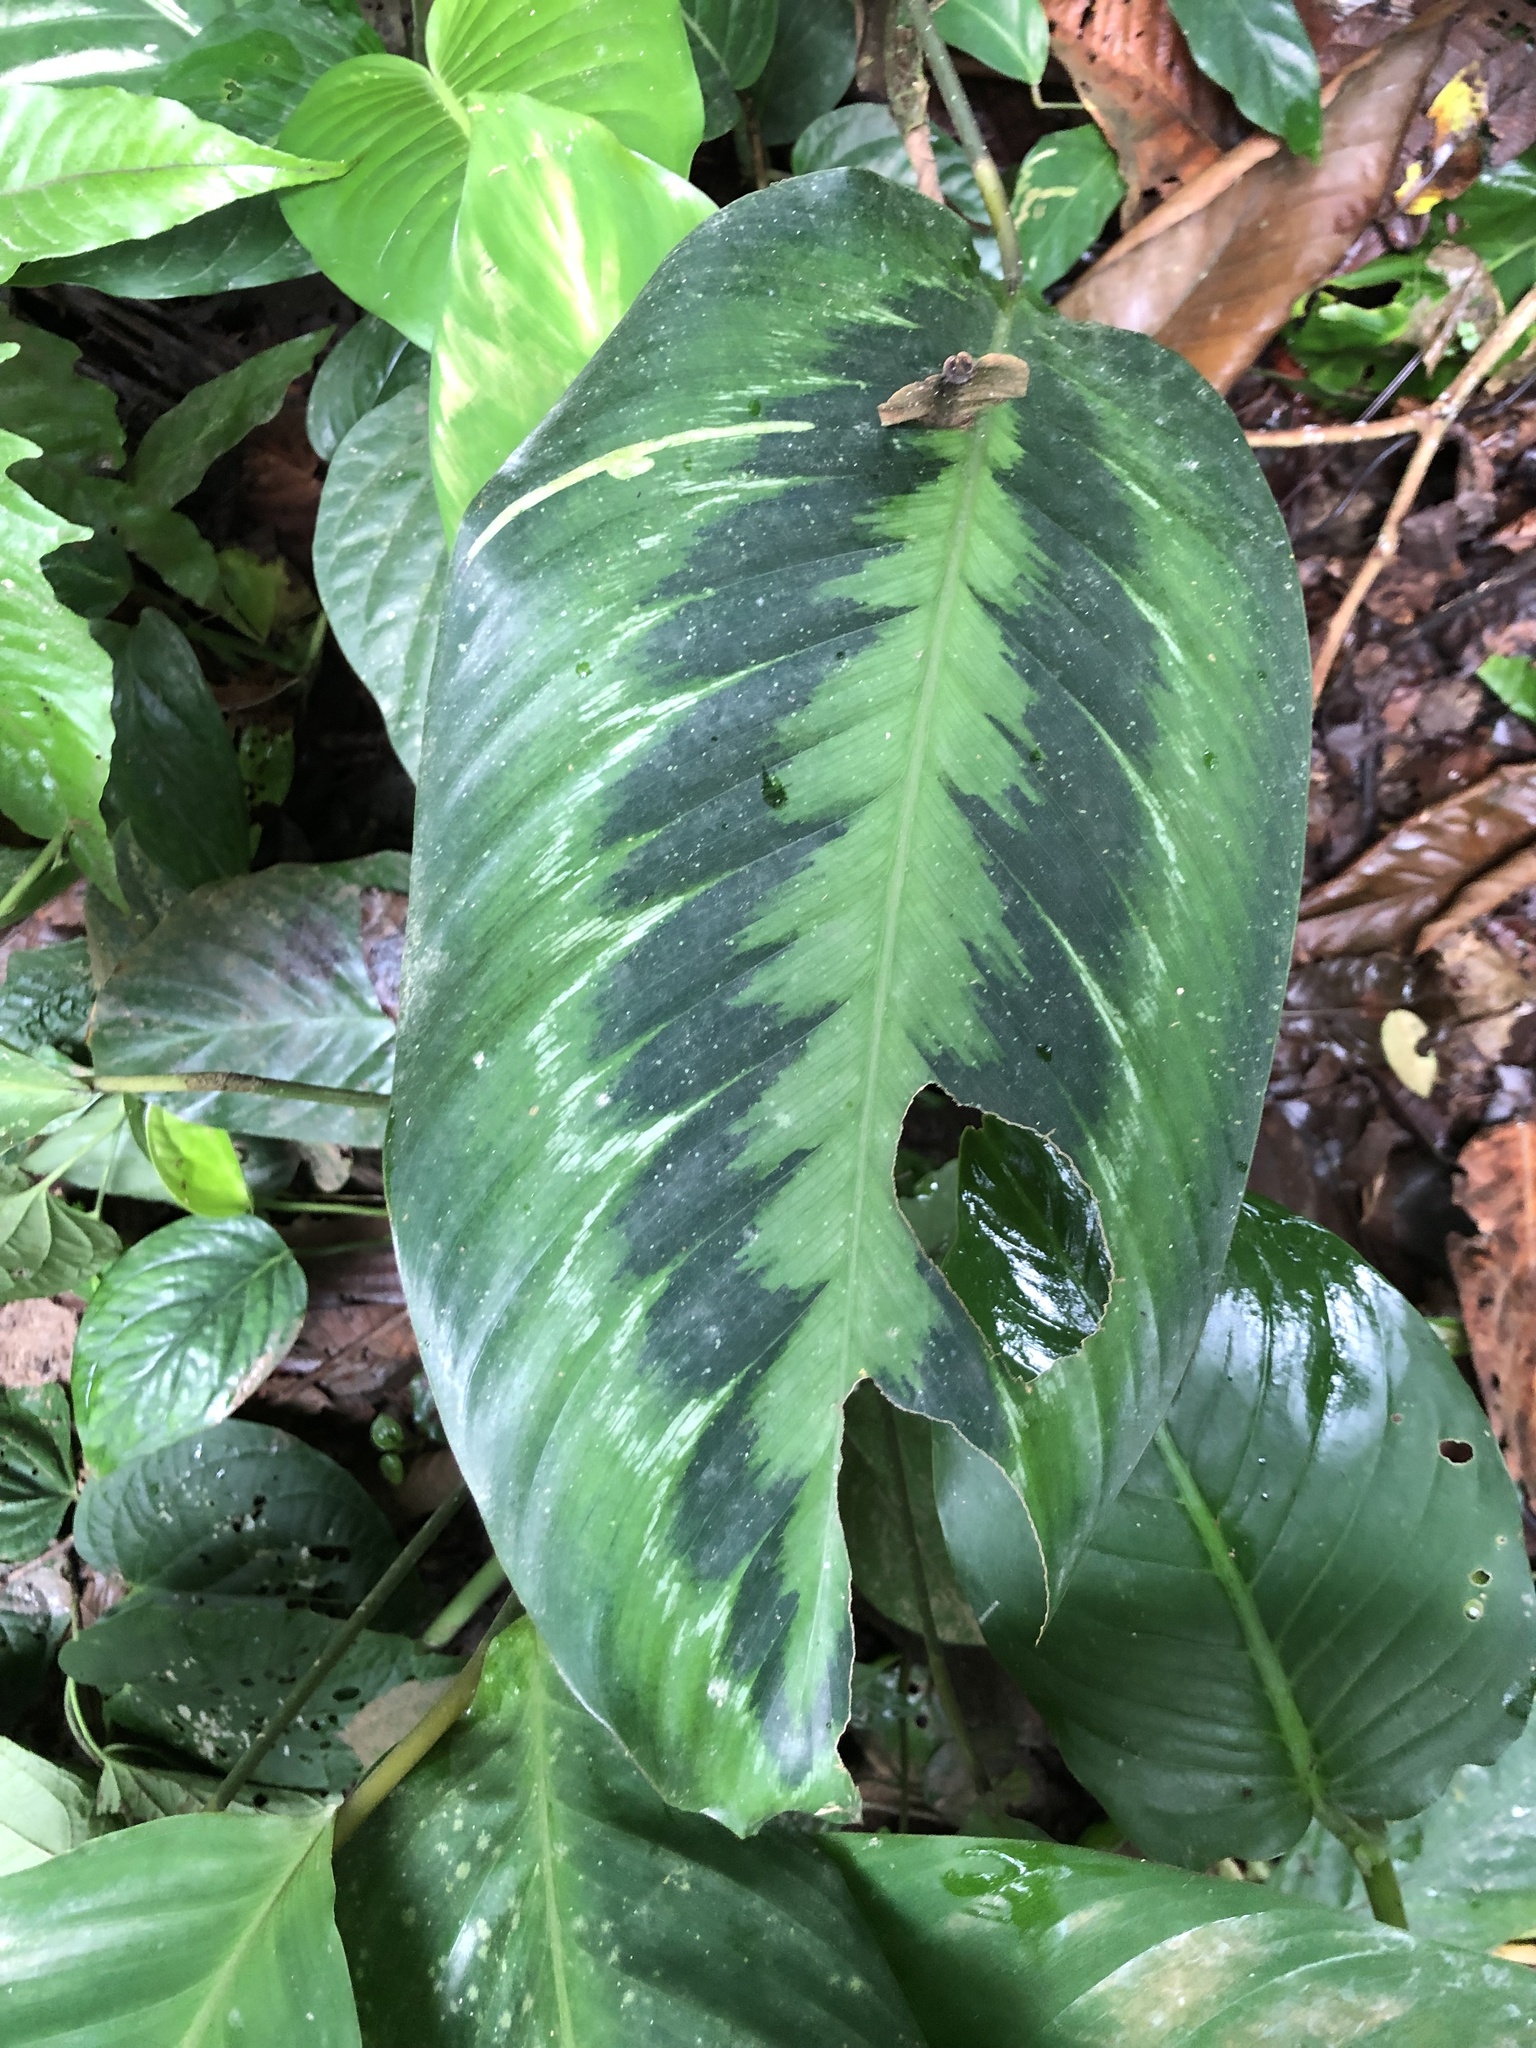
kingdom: Plantae
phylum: Tracheophyta
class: Liliopsida
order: Zingiberales
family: Marantaceae
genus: Goeppertia
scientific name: Goeppertia metallica
